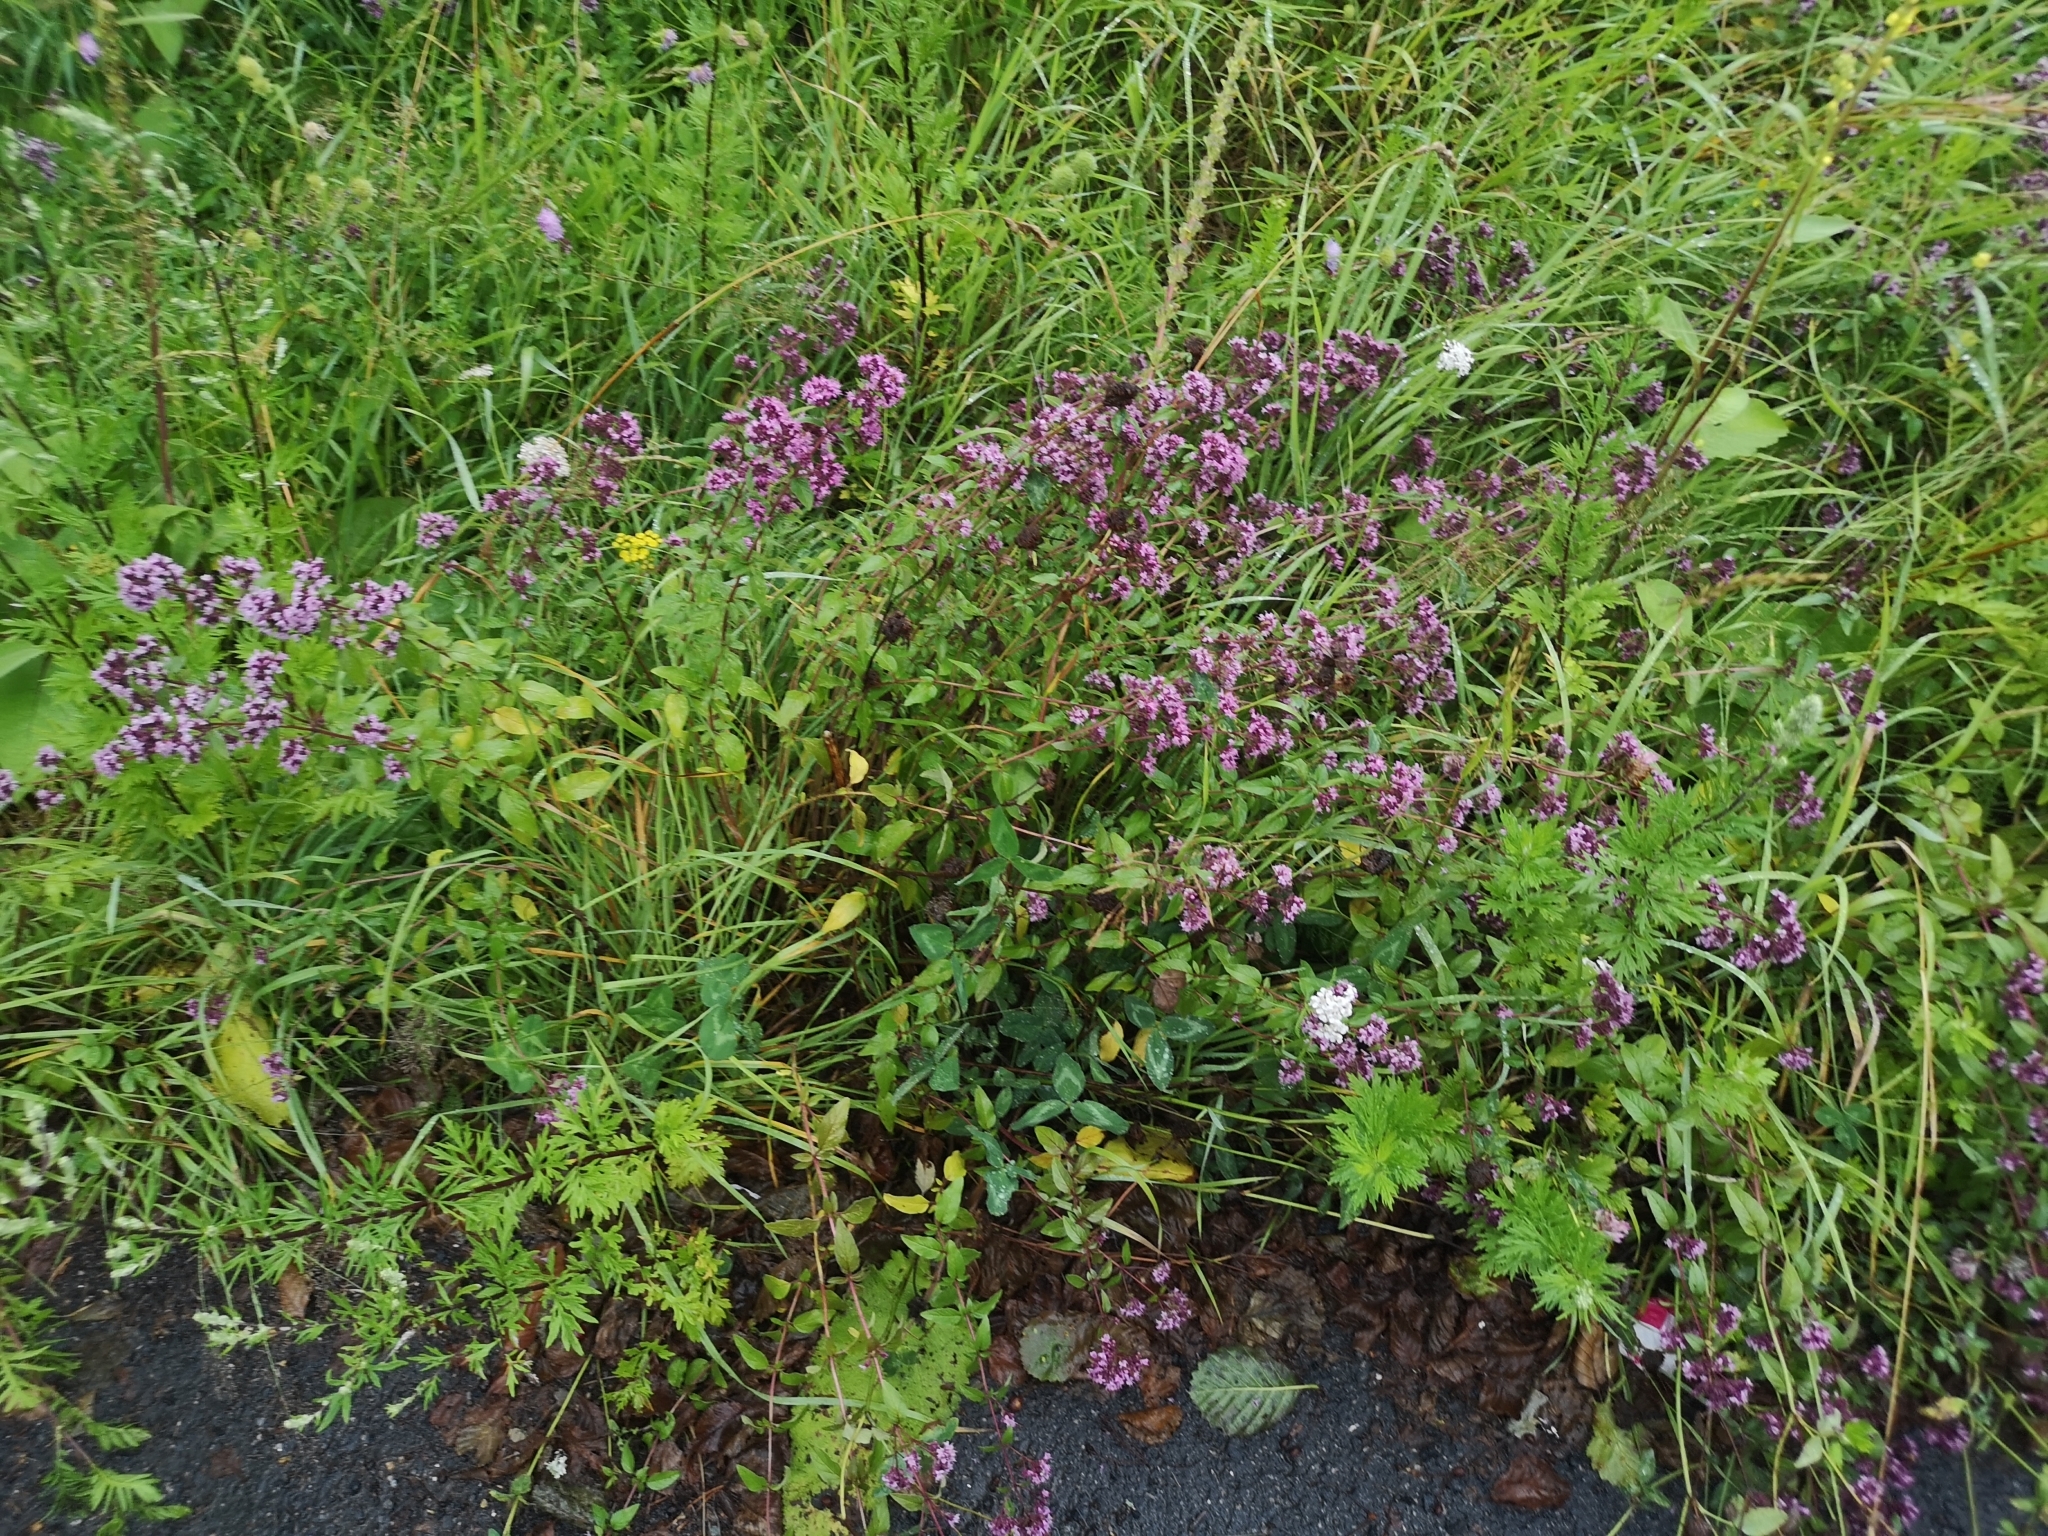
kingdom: Plantae
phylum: Tracheophyta
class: Magnoliopsida
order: Lamiales
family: Lamiaceae
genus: Origanum
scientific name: Origanum vulgare
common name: Wild marjoram
